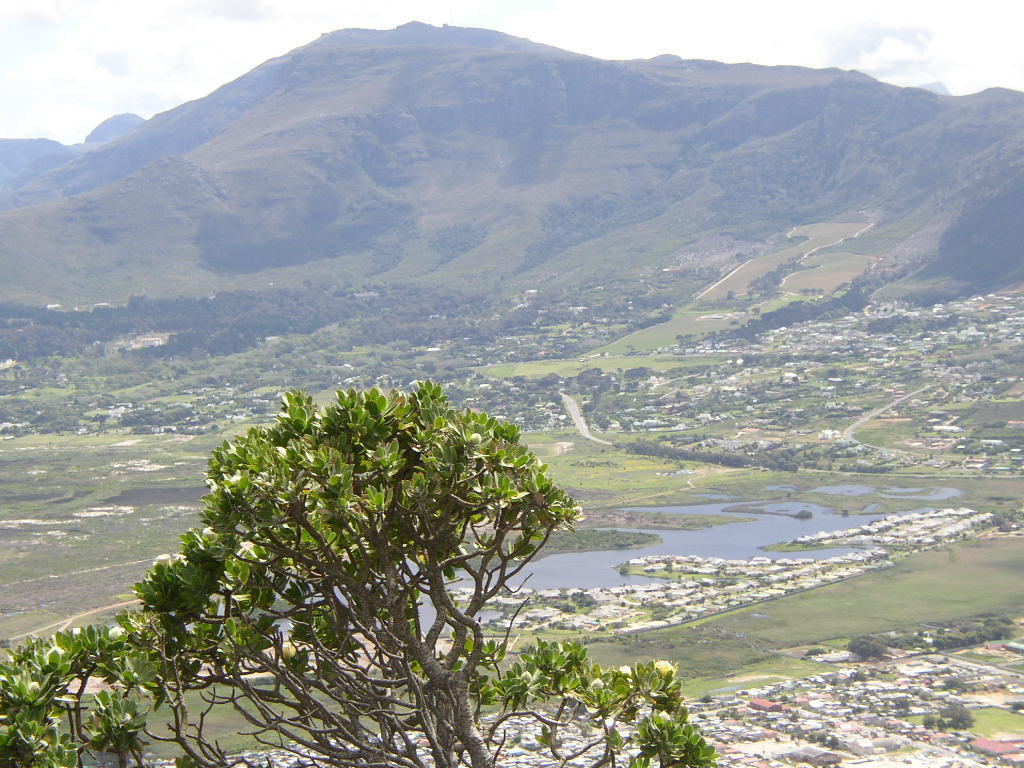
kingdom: Plantae
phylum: Tracheophyta
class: Magnoliopsida
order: Proteales
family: Proteaceae
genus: Leucospermum
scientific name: Leucospermum conocarpodendron
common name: Tree pincushion
